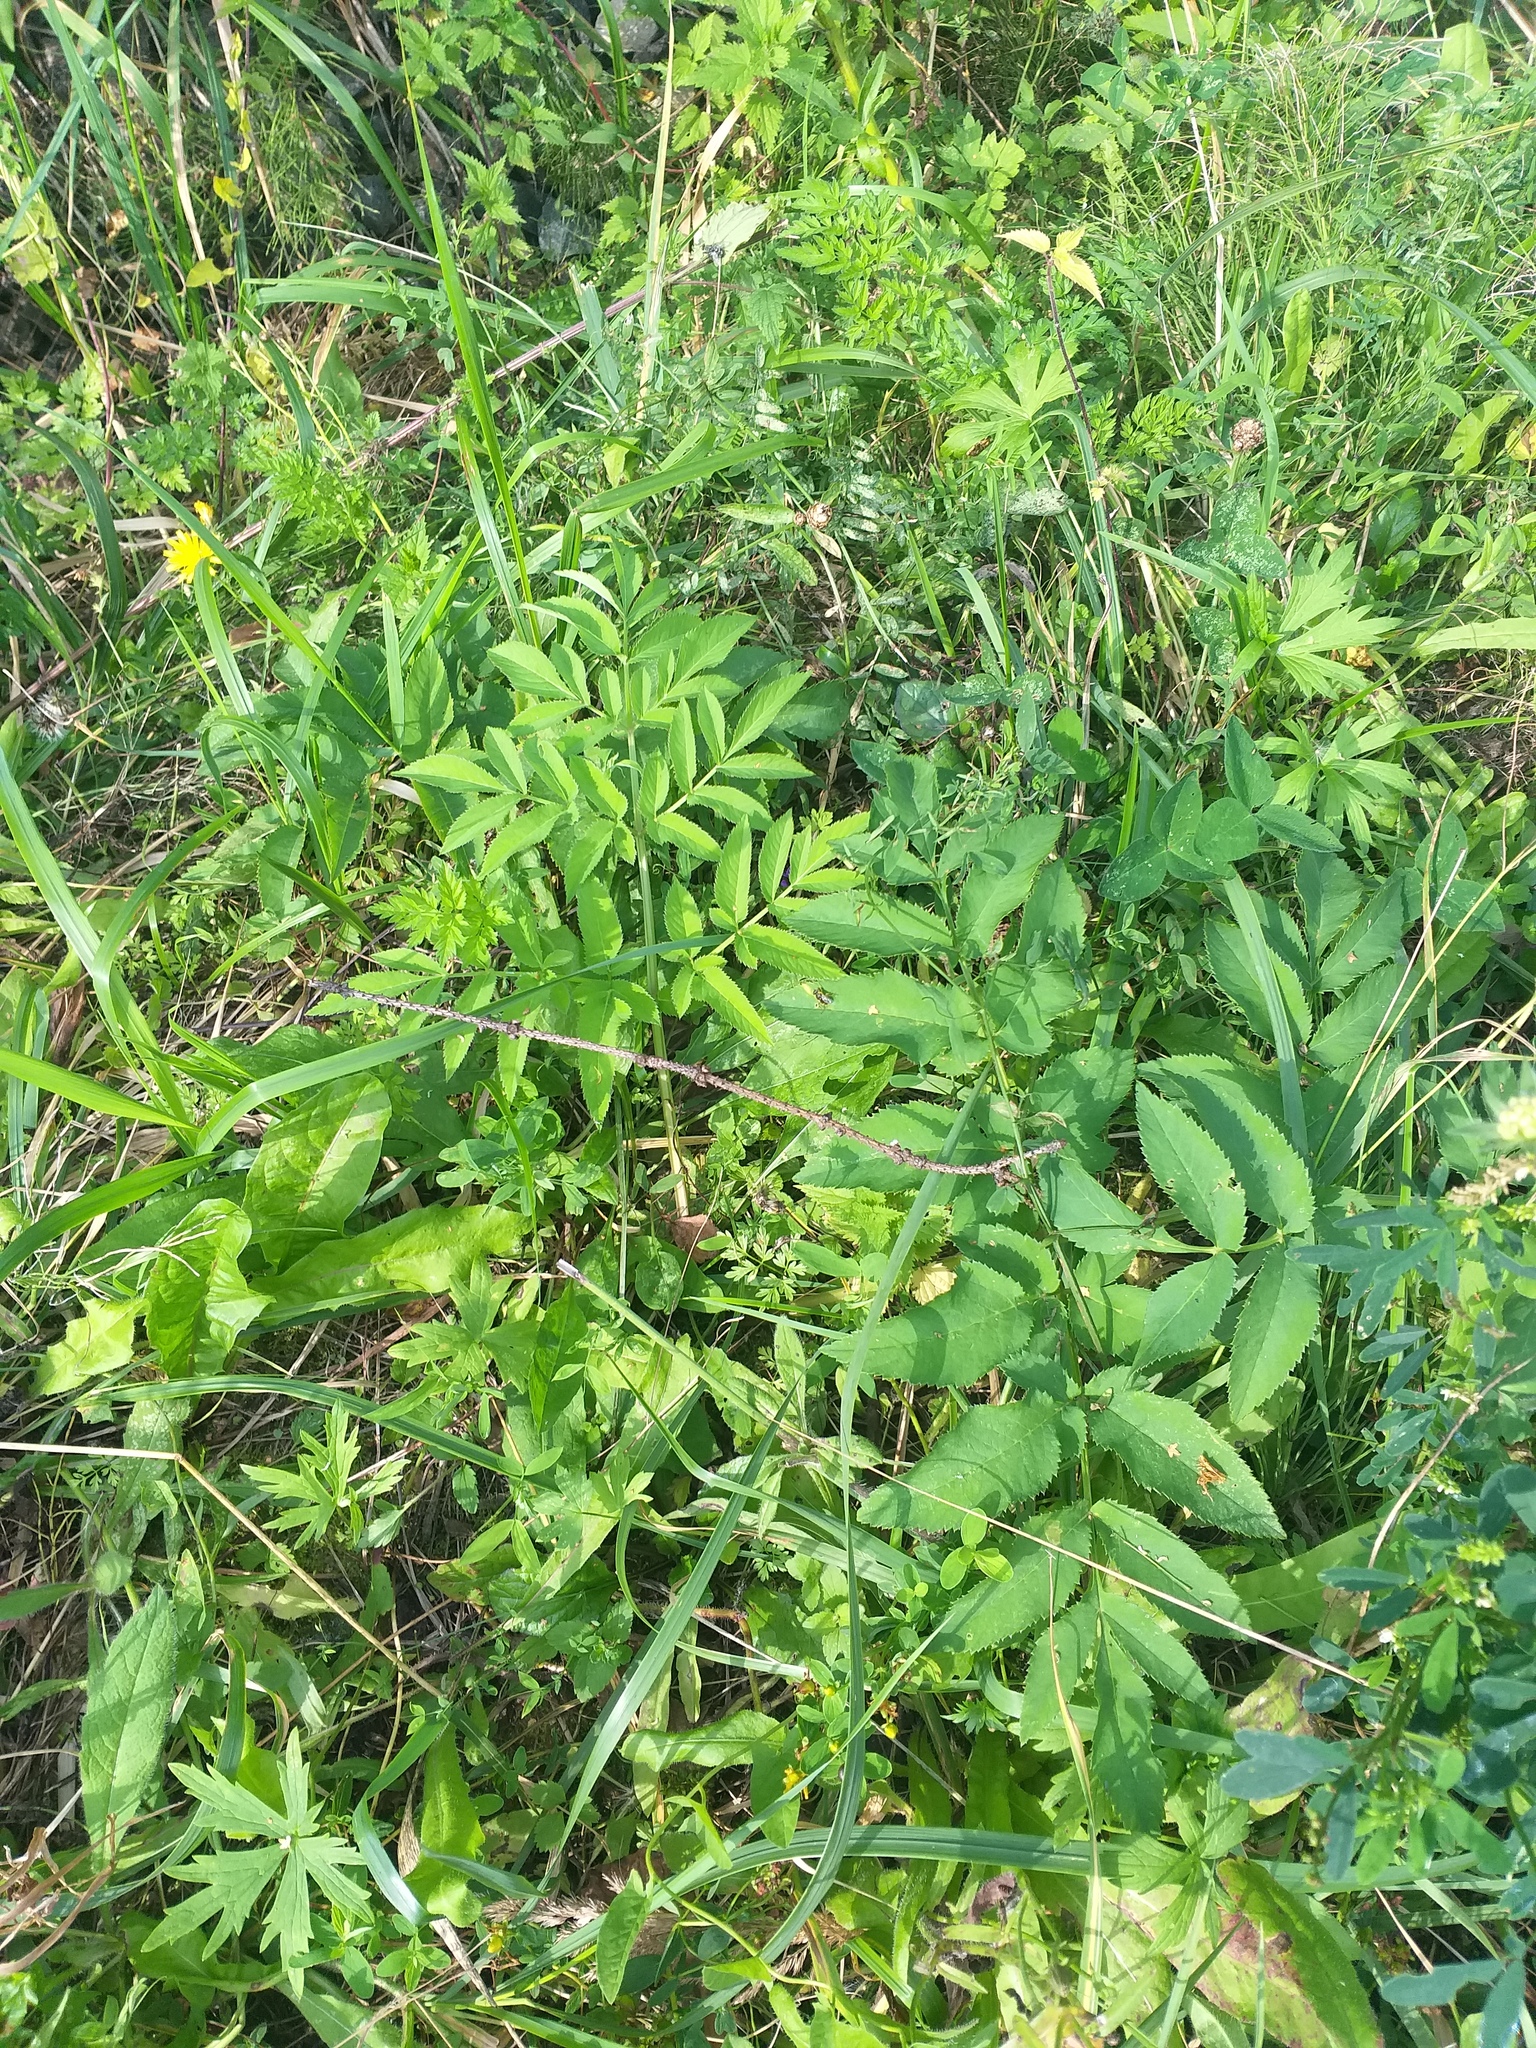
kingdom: Plantae
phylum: Tracheophyta
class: Magnoliopsida
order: Apiales
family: Apiaceae
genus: Angelica
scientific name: Angelica sylvestris
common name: Wild angelica
